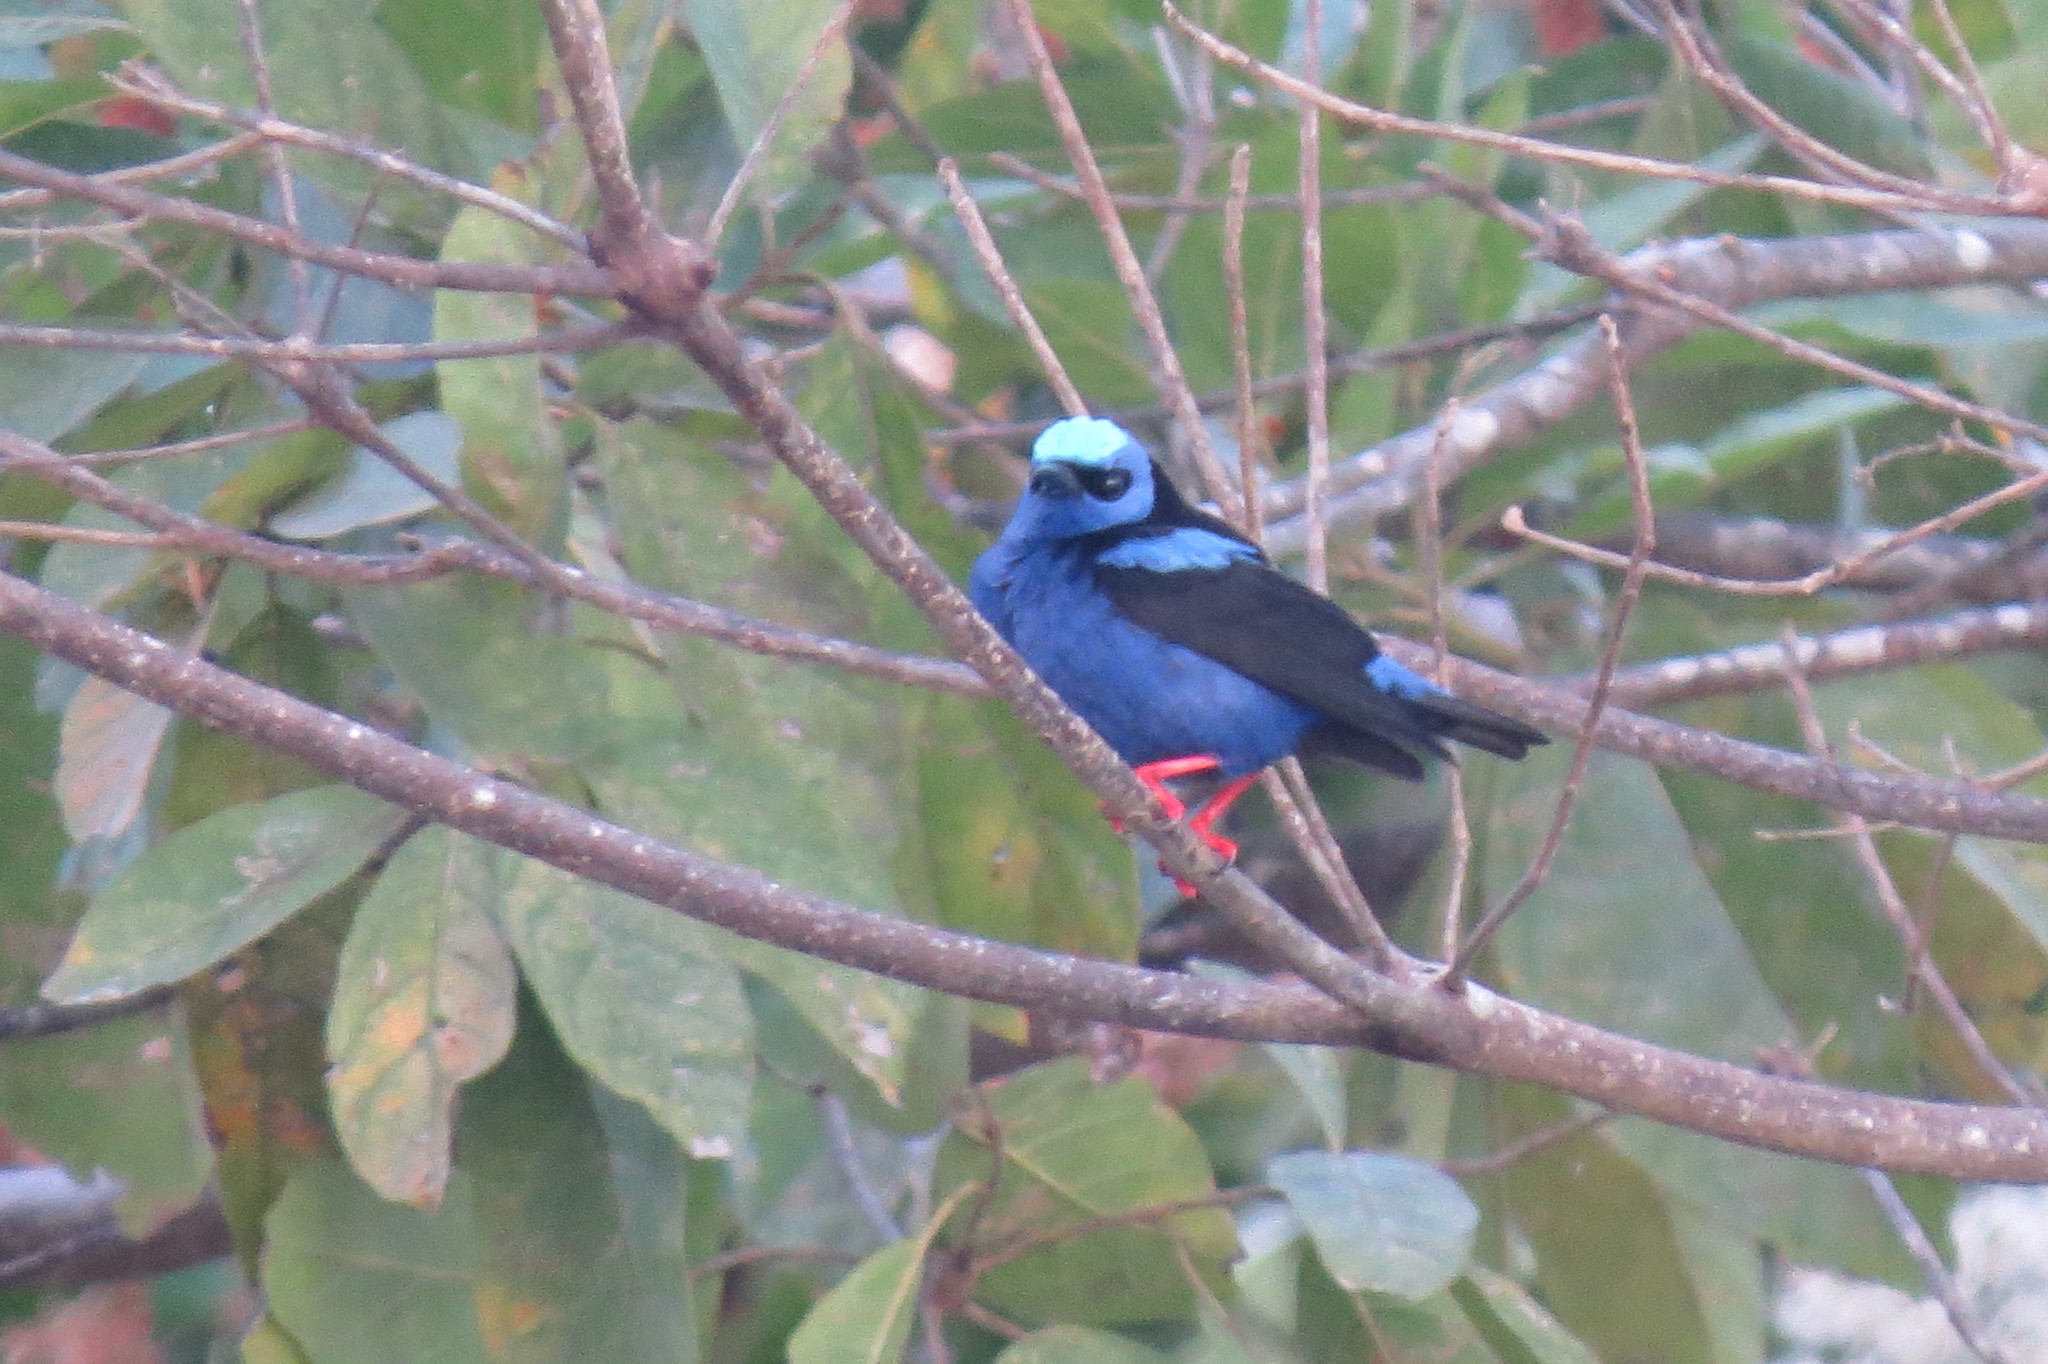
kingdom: Animalia
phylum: Chordata
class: Aves
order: Passeriformes
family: Thraupidae
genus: Cyanerpes
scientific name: Cyanerpes cyaneus
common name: Red-legged honeycreeper
